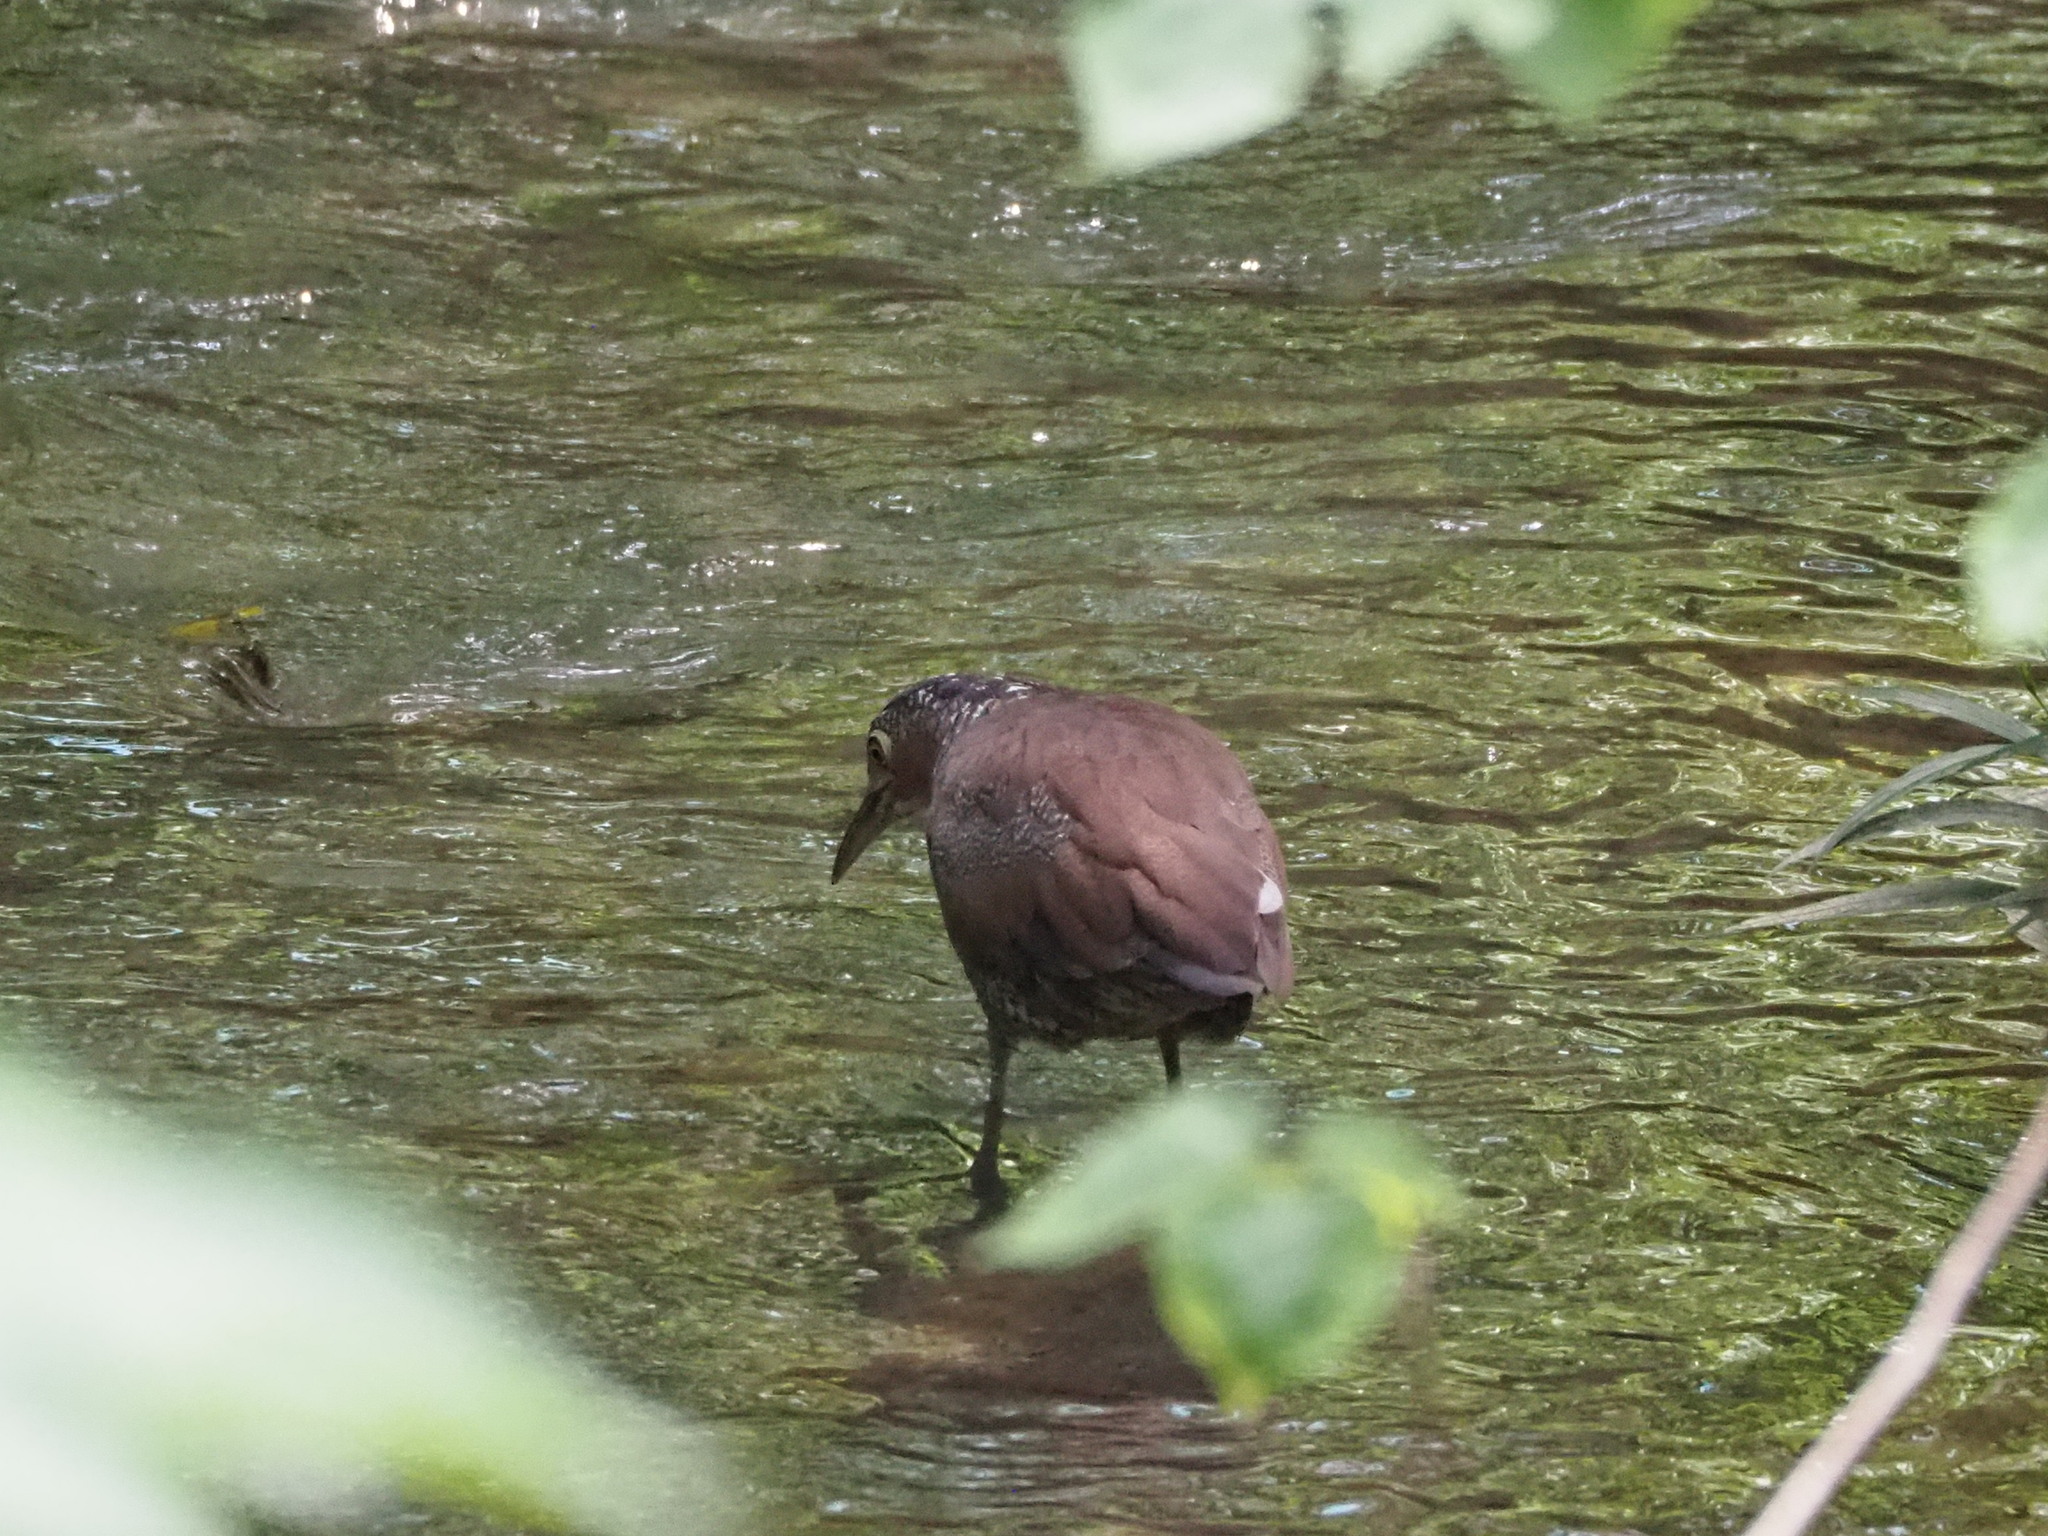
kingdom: Animalia
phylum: Chordata
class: Aves
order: Pelecaniformes
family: Ardeidae
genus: Gorsachius
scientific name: Gorsachius melanolophus
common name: Malayan night heron
